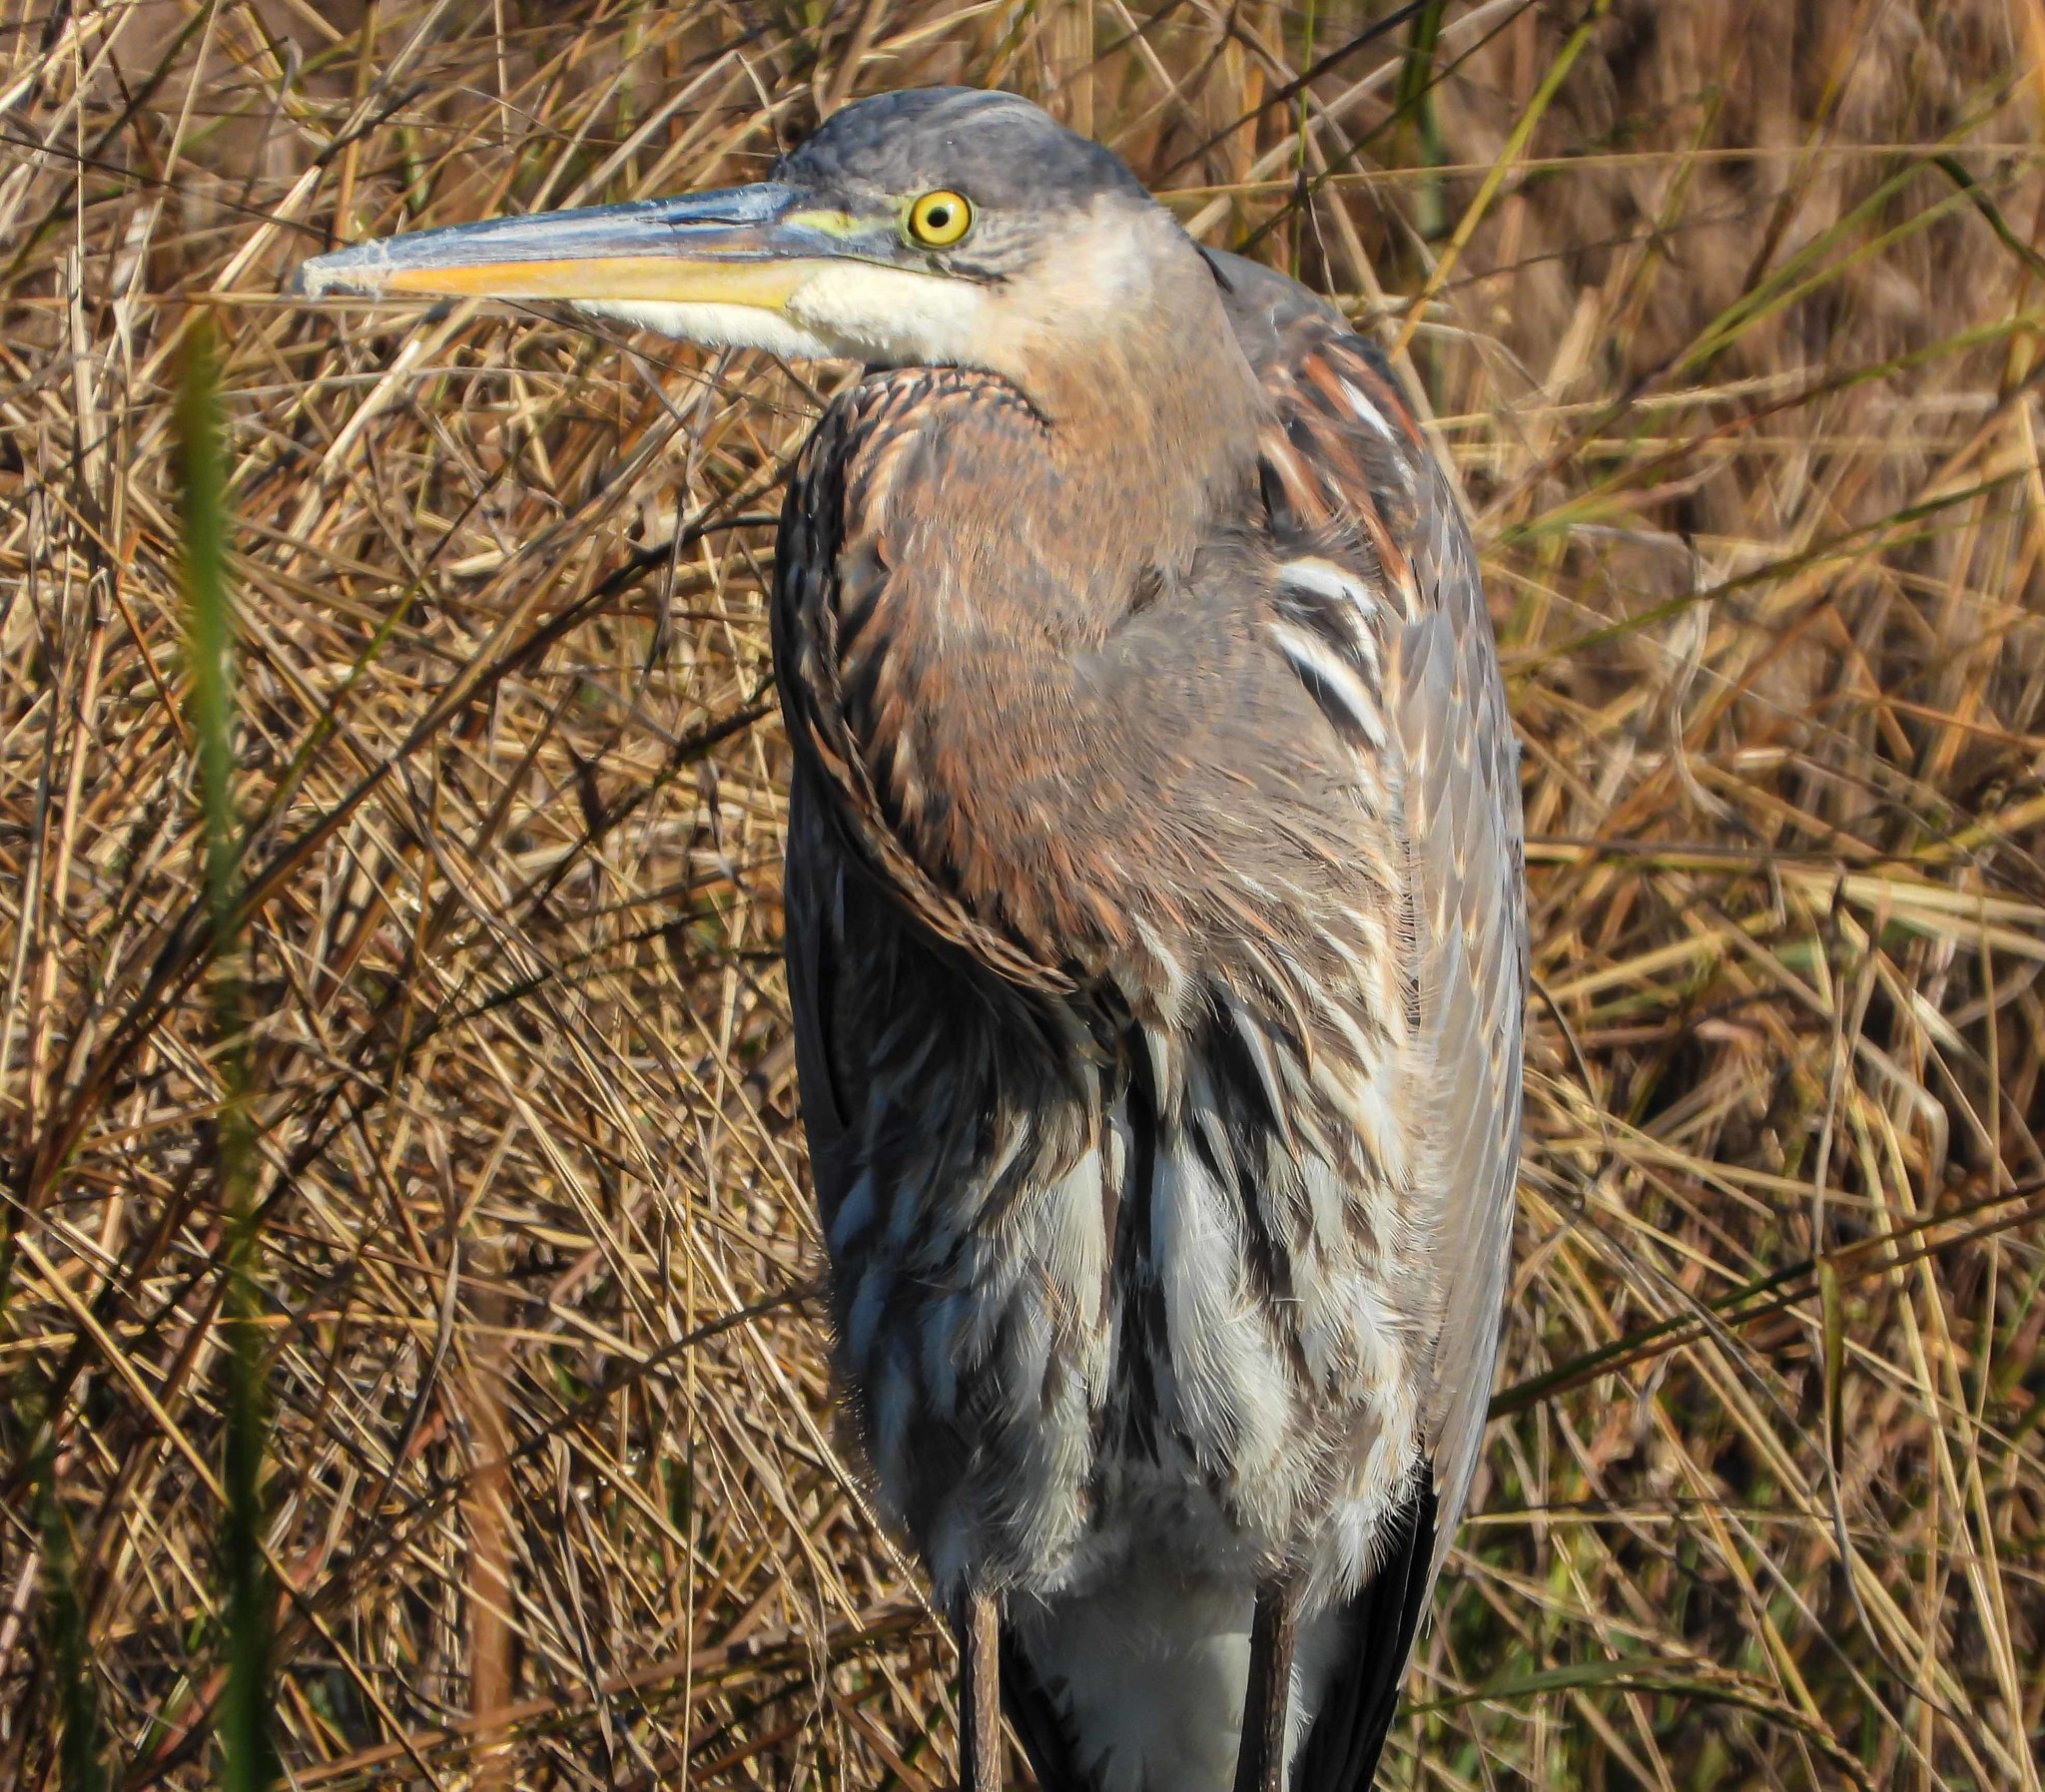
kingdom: Animalia
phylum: Chordata
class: Aves
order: Pelecaniformes
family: Ardeidae
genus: Ardea
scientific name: Ardea herodias
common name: Great blue heron
